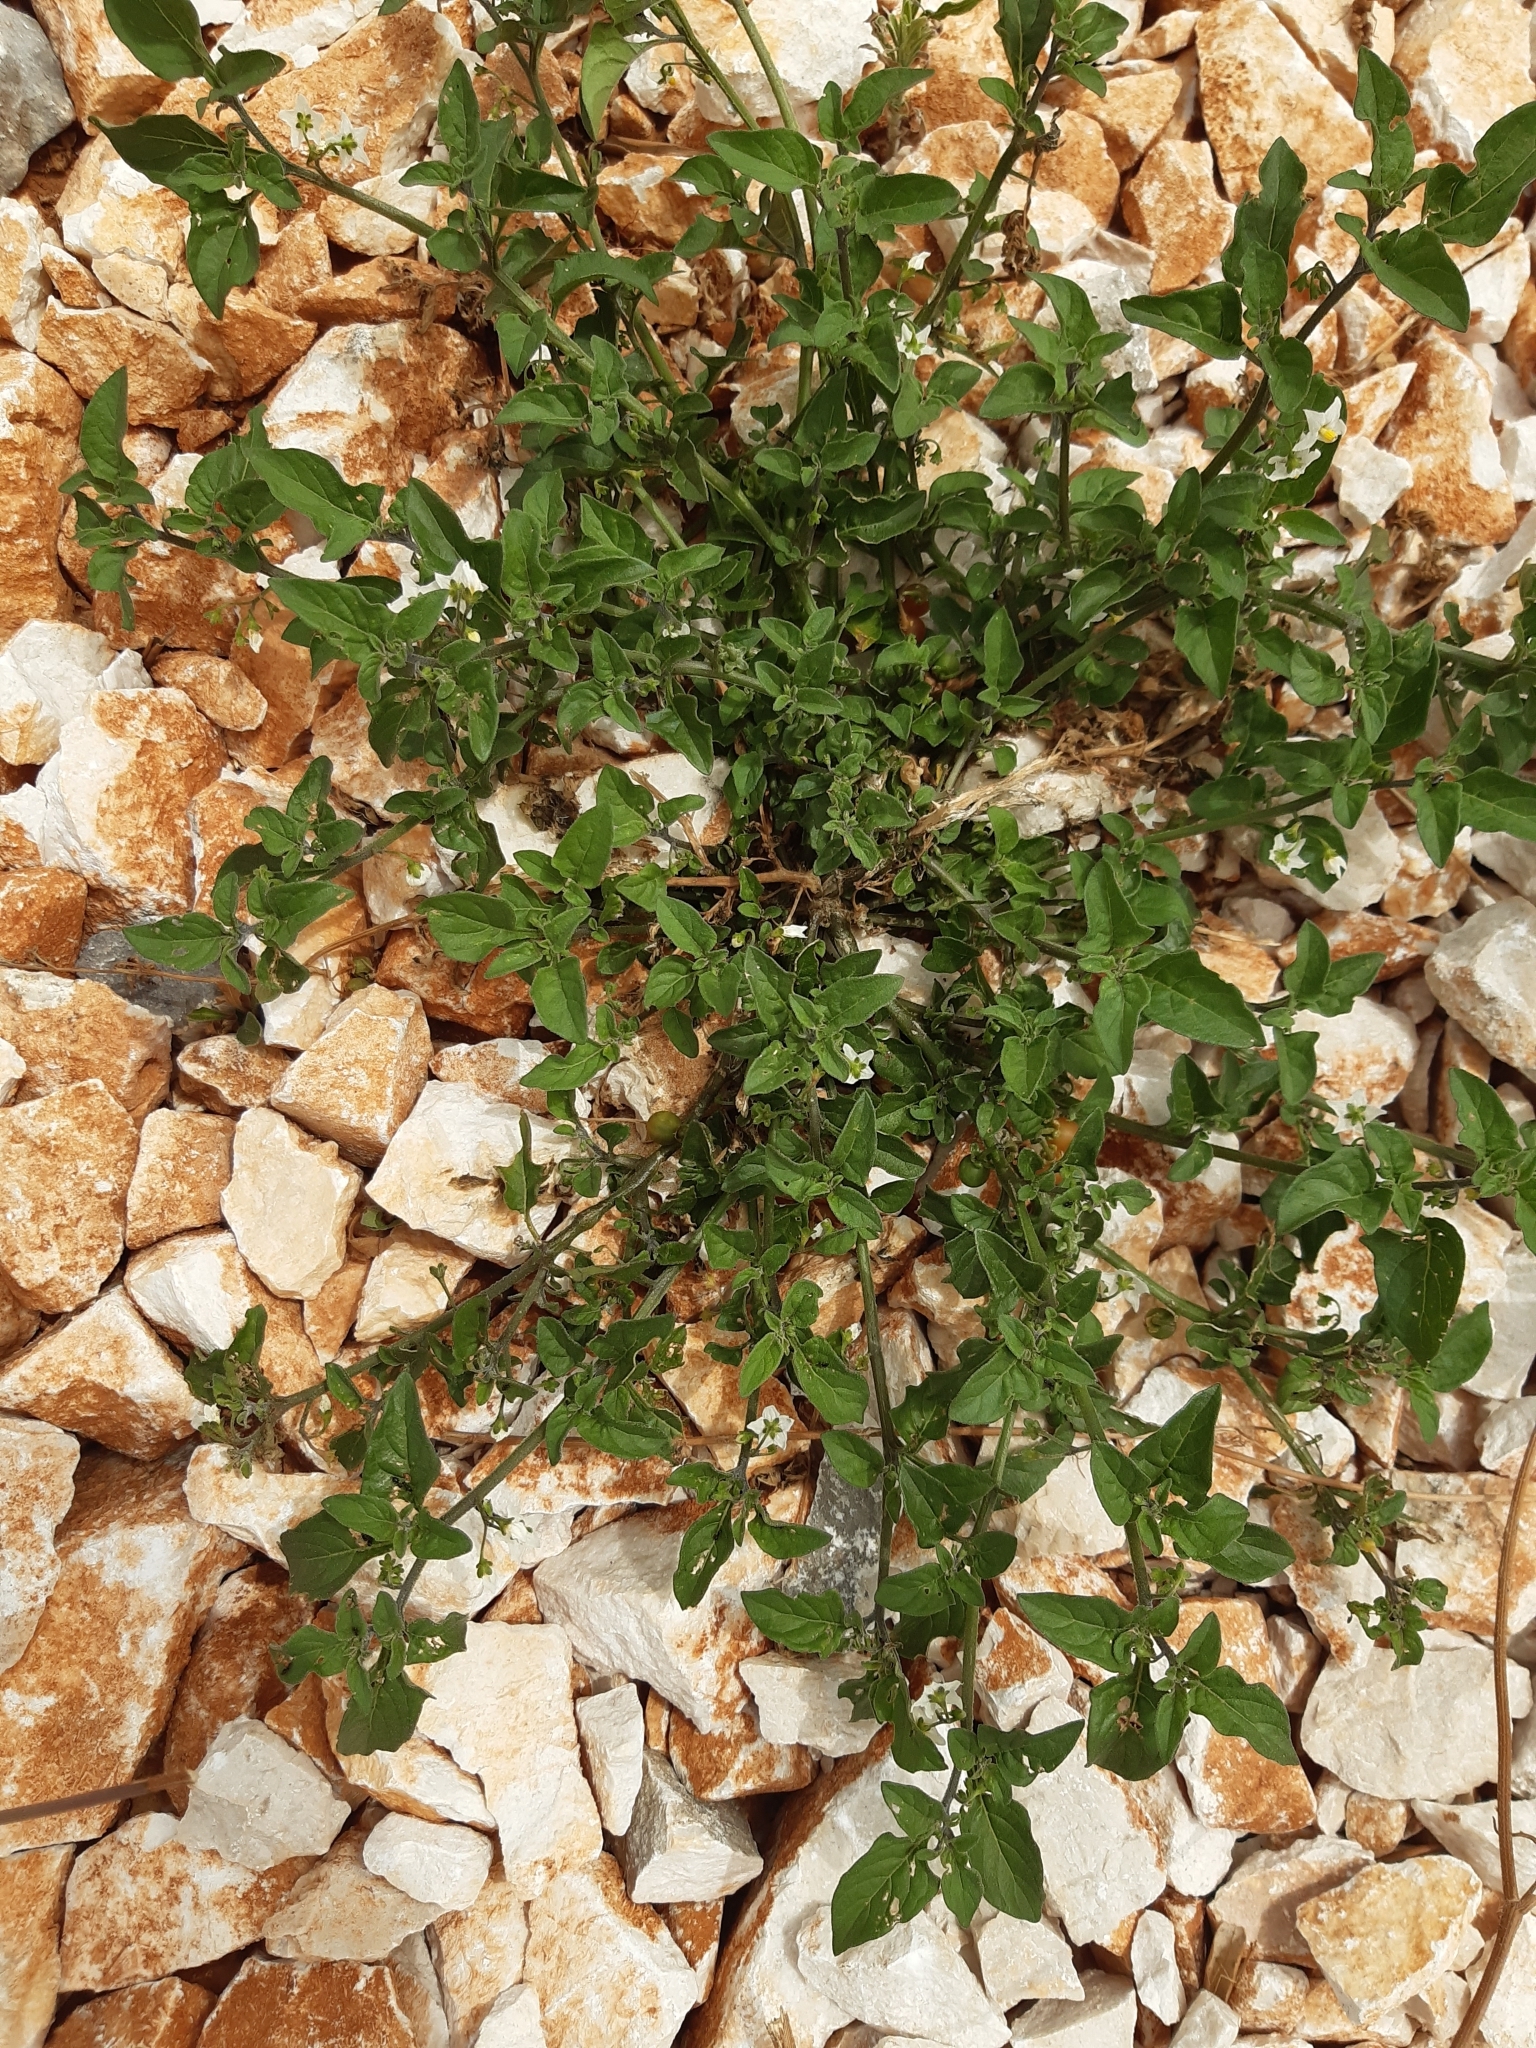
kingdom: Plantae
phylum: Tracheophyta
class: Magnoliopsida
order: Solanales
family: Solanaceae
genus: Solanum
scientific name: Solanum villosum
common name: Red nightshade
